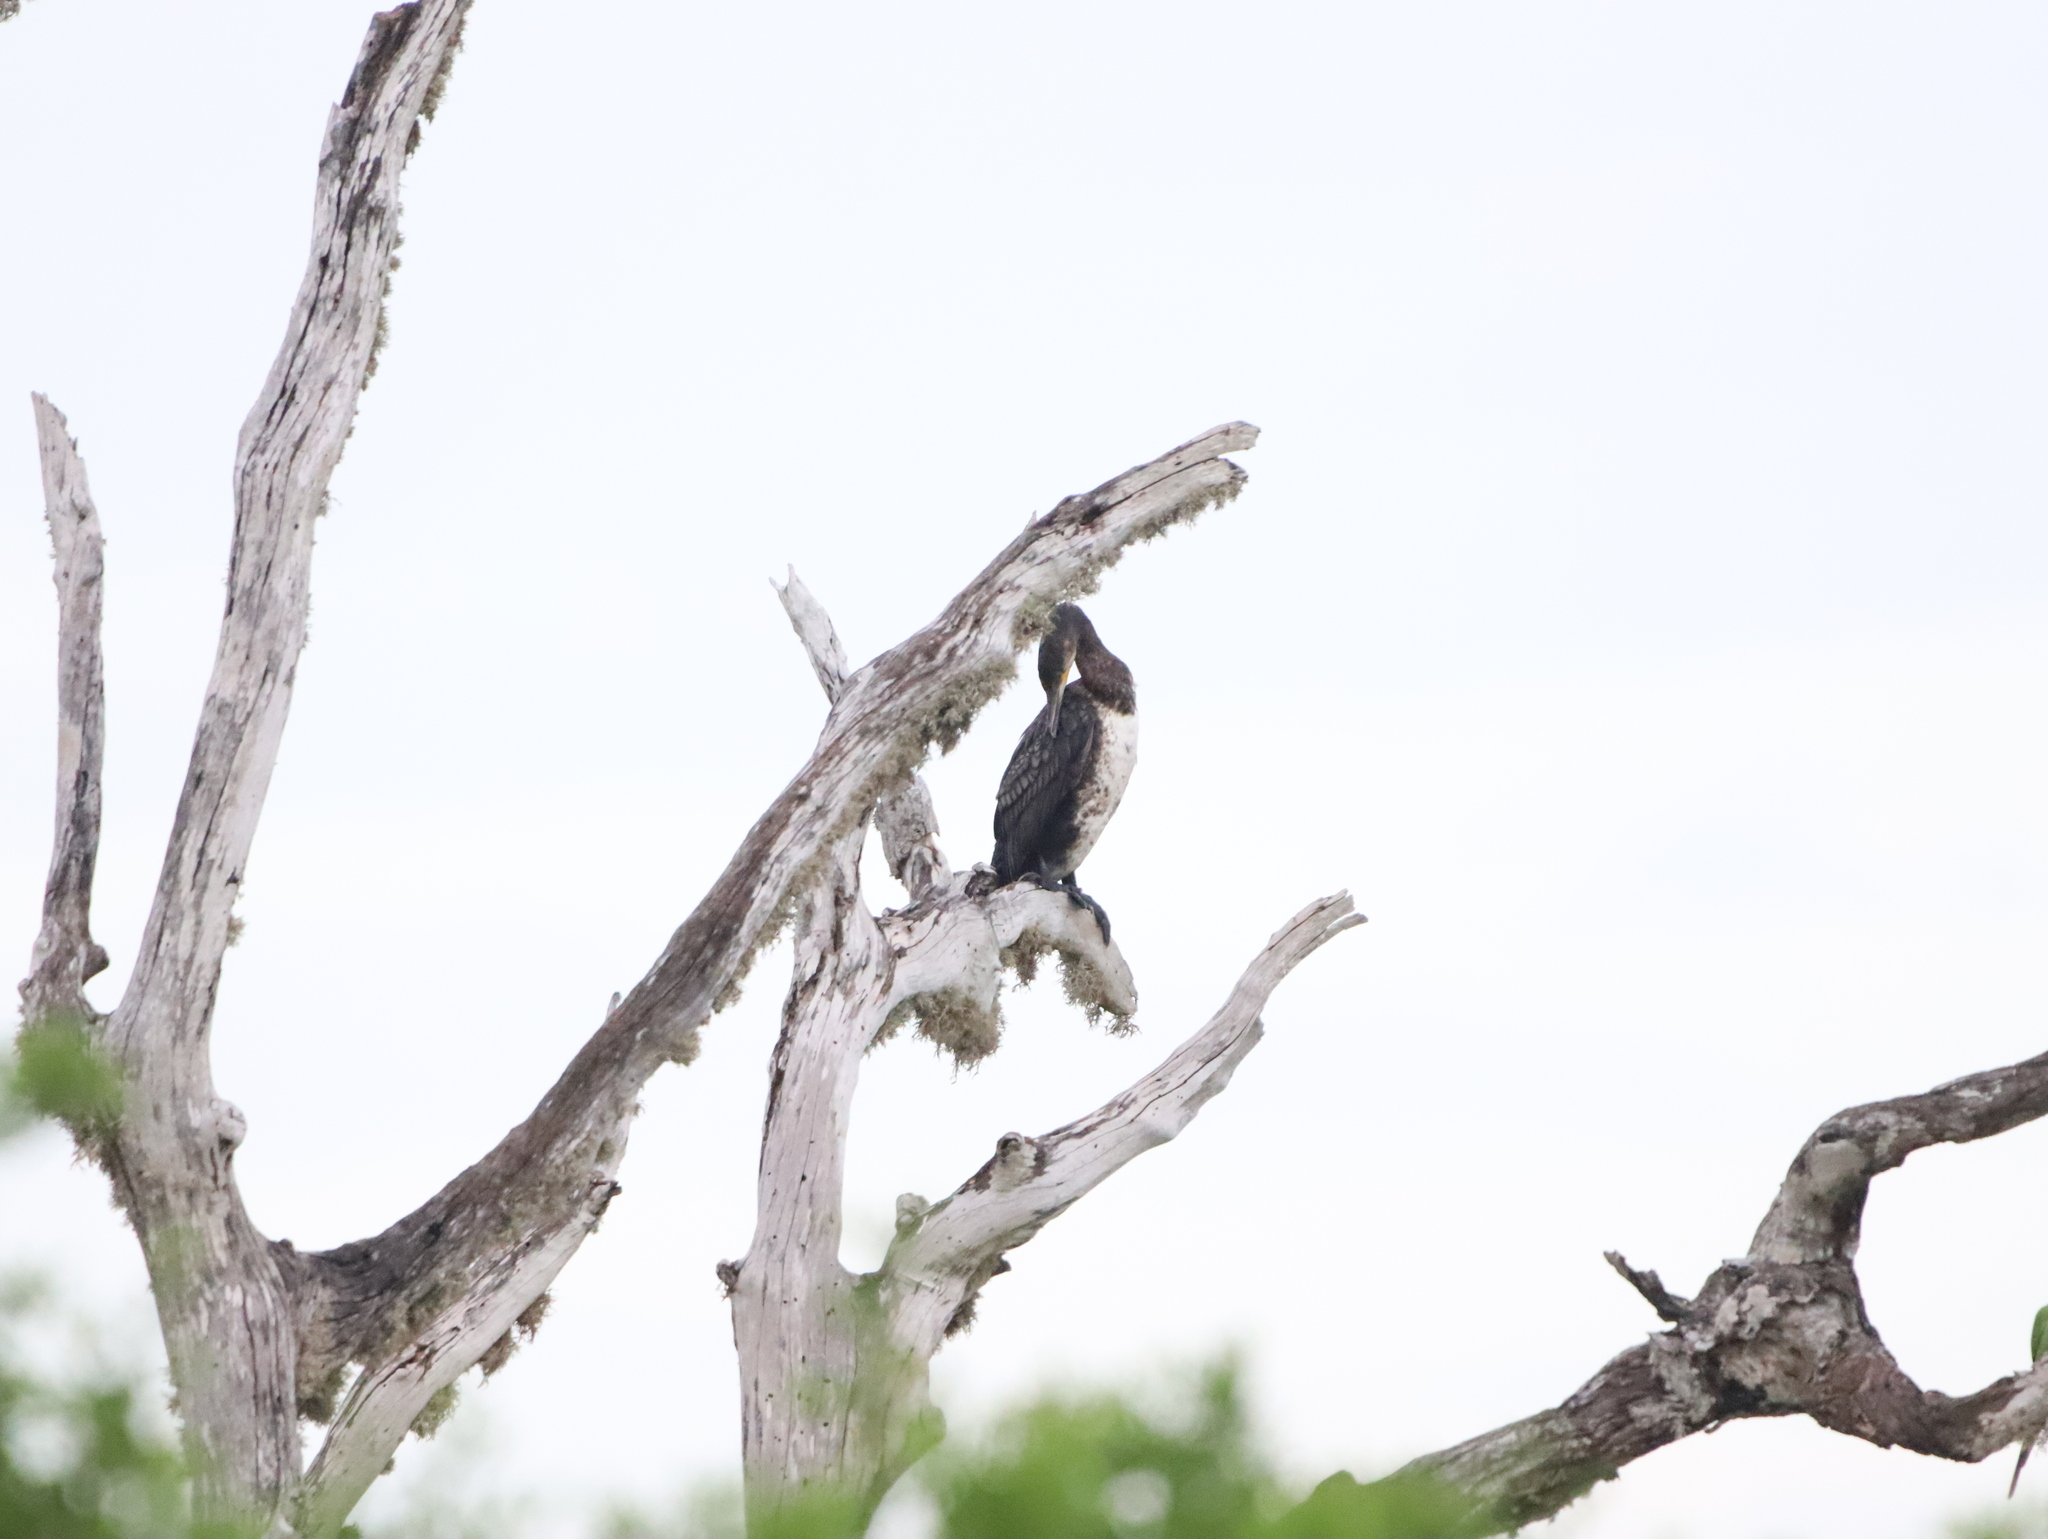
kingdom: Animalia
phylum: Chordata
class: Aves
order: Suliformes
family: Anhingidae
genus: Anhinga
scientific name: Anhinga melanogaster
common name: Oriental darter
